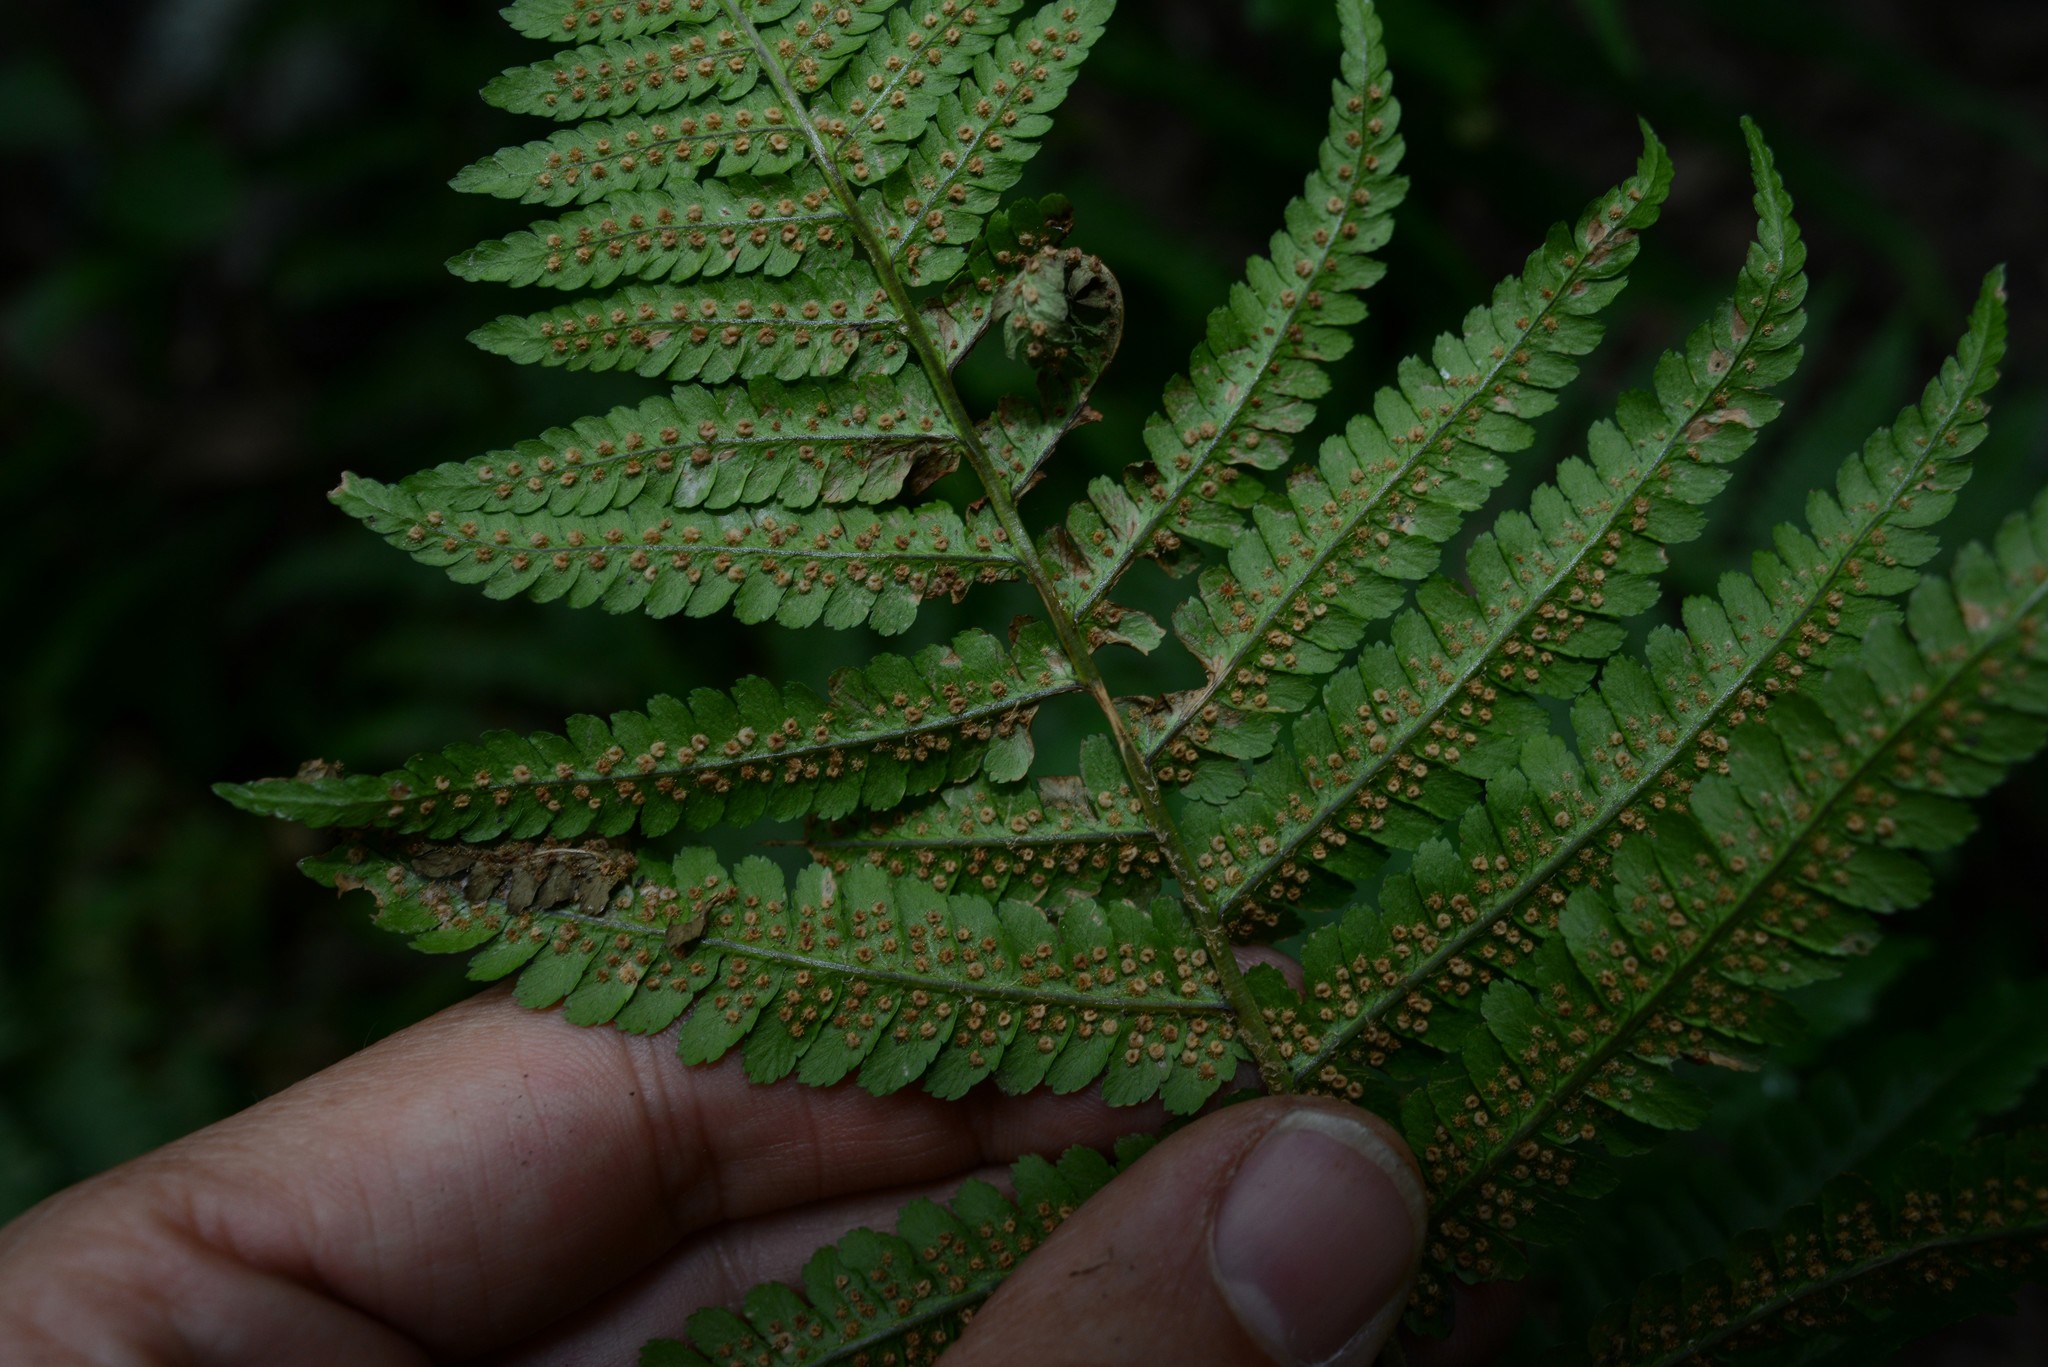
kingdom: Plantae
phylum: Tracheophyta
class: Polypodiopsida
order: Polypodiales
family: Dryopteridaceae
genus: Dryopteris
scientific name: Dryopteris filix-mas
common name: Male fern
